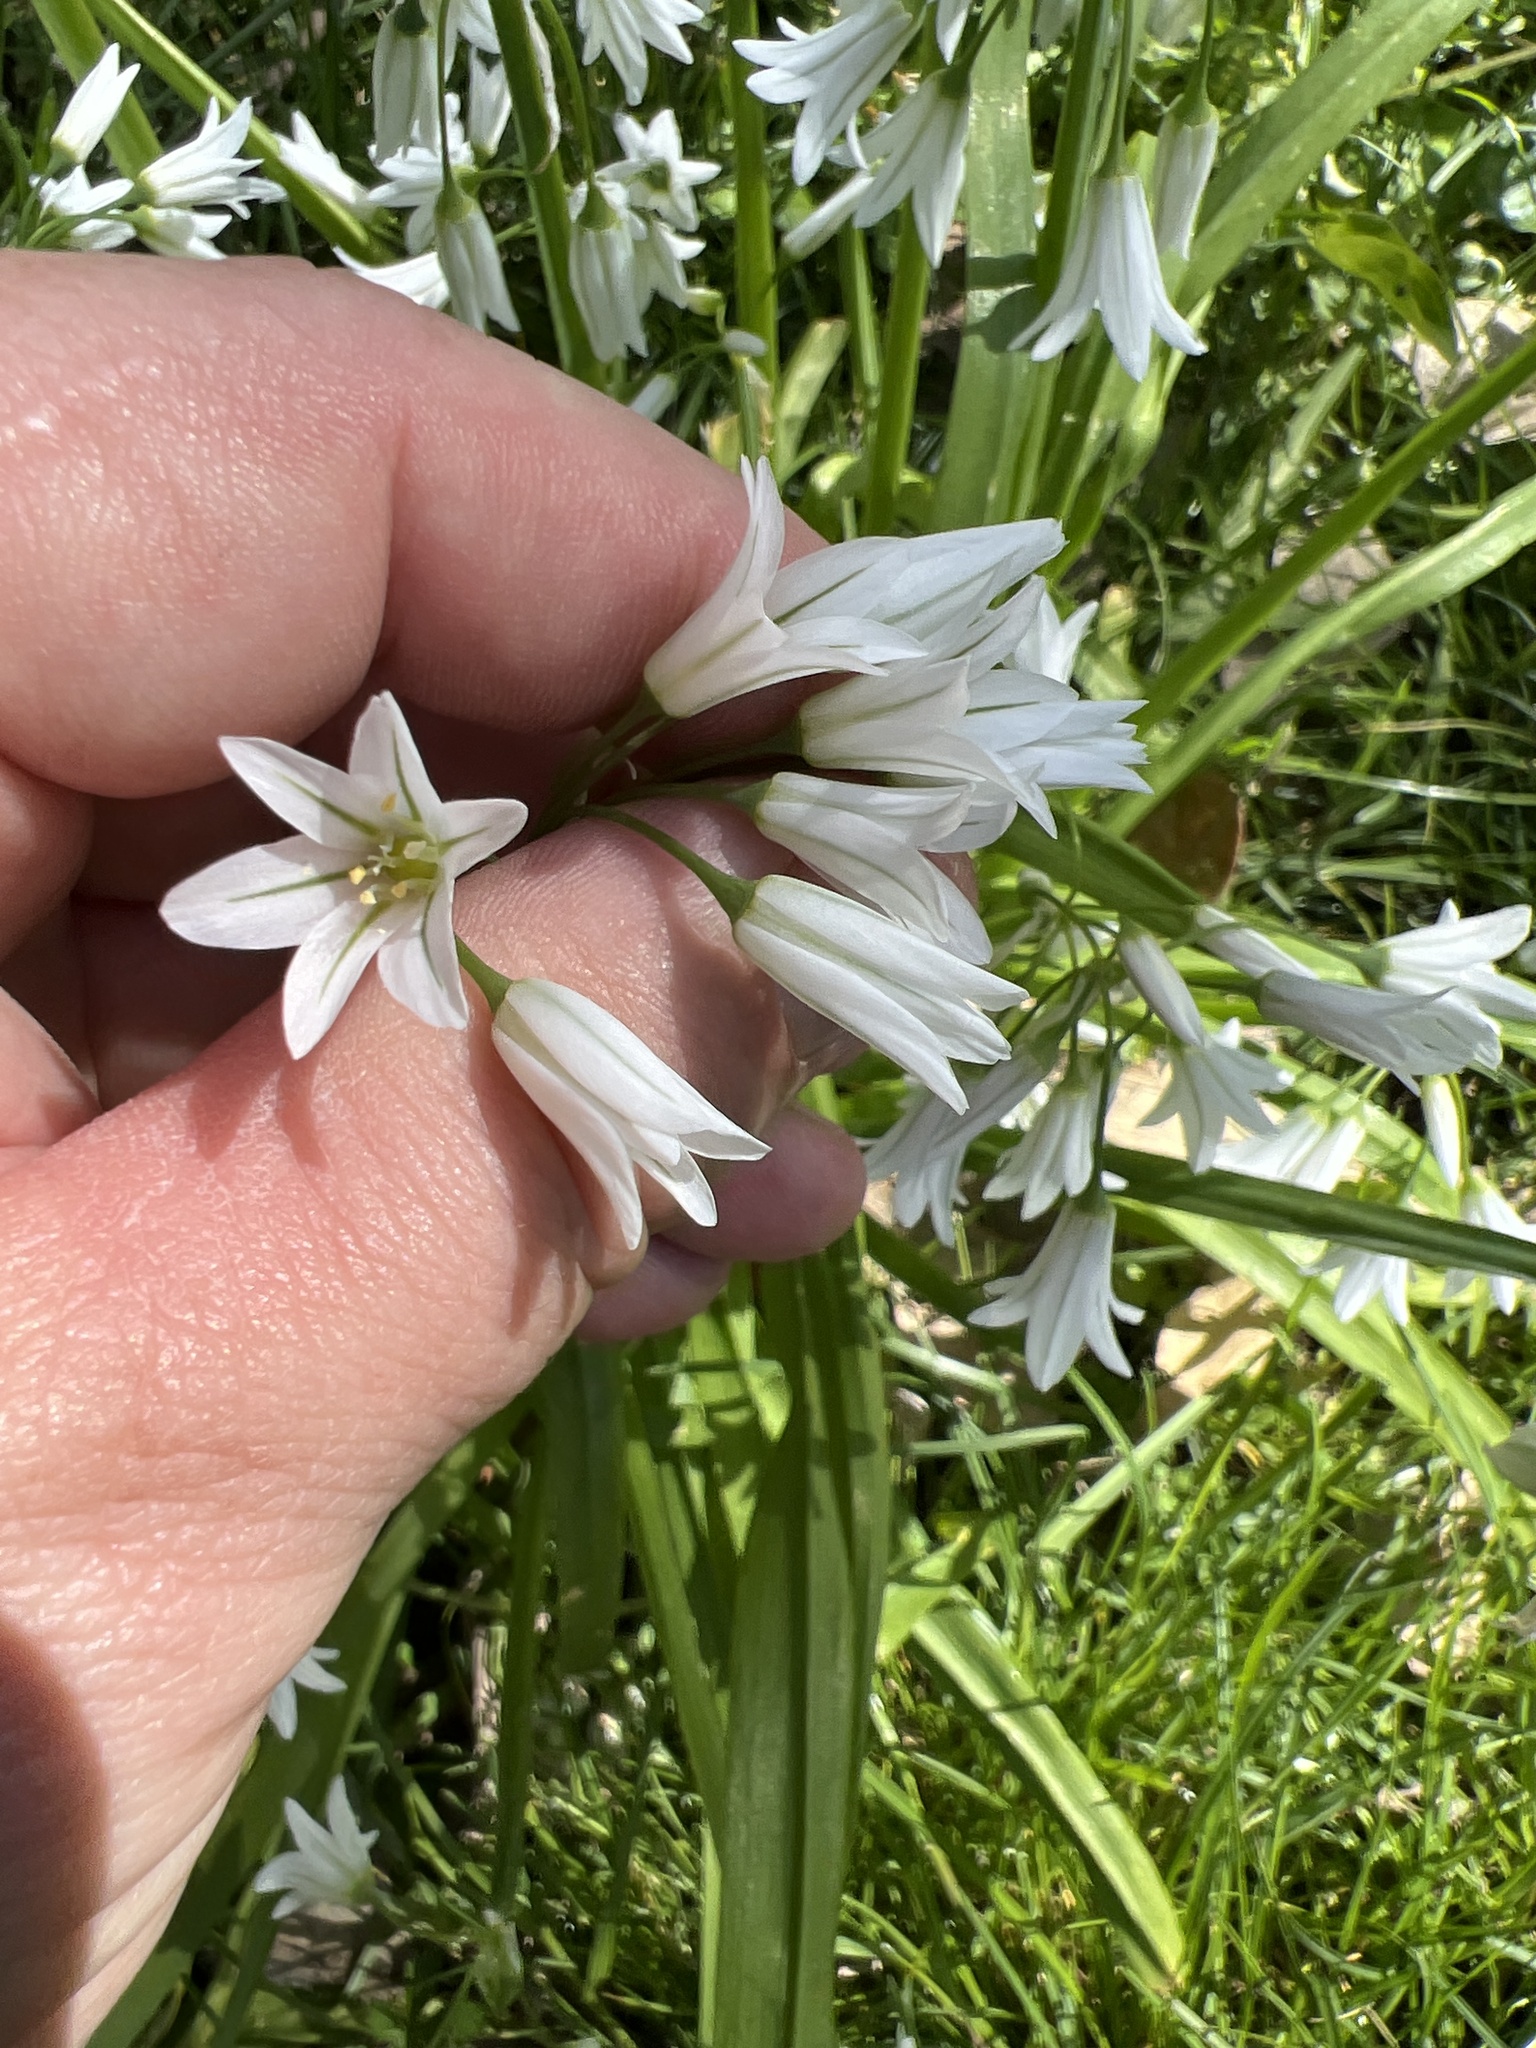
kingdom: Plantae
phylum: Tracheophyta
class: Liliopsida
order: Asparagales
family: Amaryllidaceae
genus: Allium
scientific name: Allium triquetrum
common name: Three-cornered garlic
